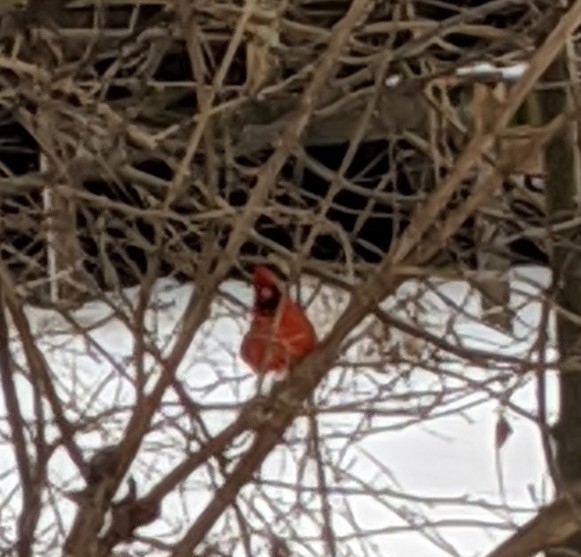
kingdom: Animalia
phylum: Chordata
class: Aves
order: Passeriformes
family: Cardinalidae
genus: Cardinalis
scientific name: Cardinalis cardinalis
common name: Northern cardinal
